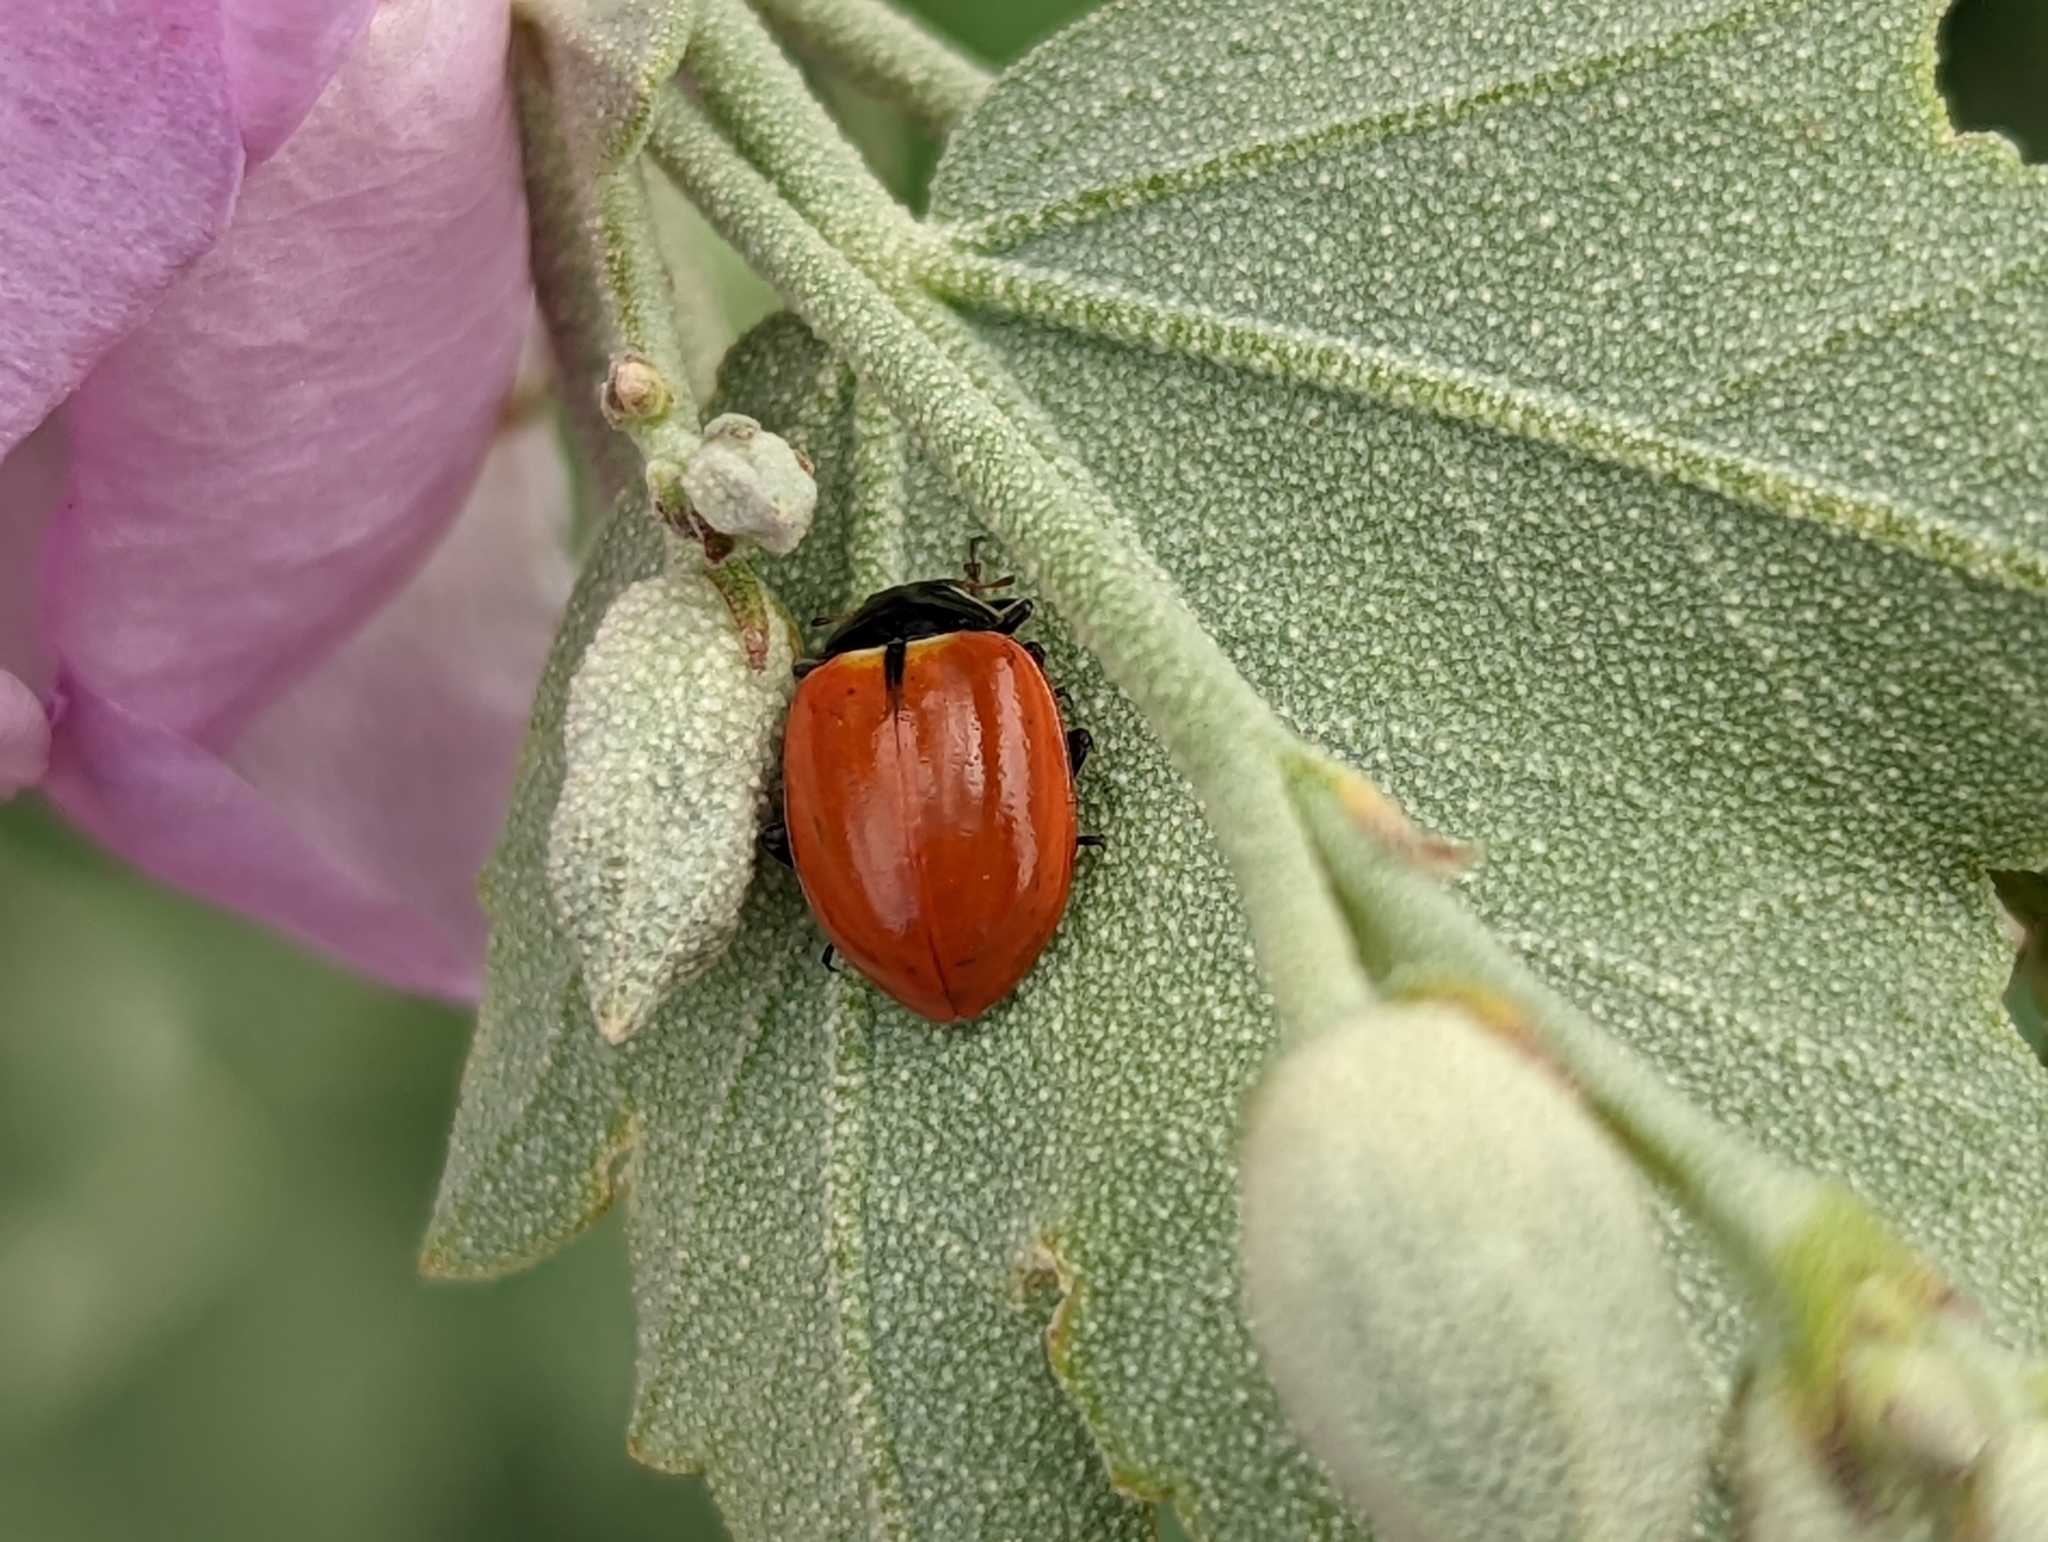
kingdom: Animalia
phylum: Arthropoda
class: Insecta
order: Coleoptera
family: Coccinellidae
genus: Hippodamia
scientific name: Hippodamia quinquesignata
